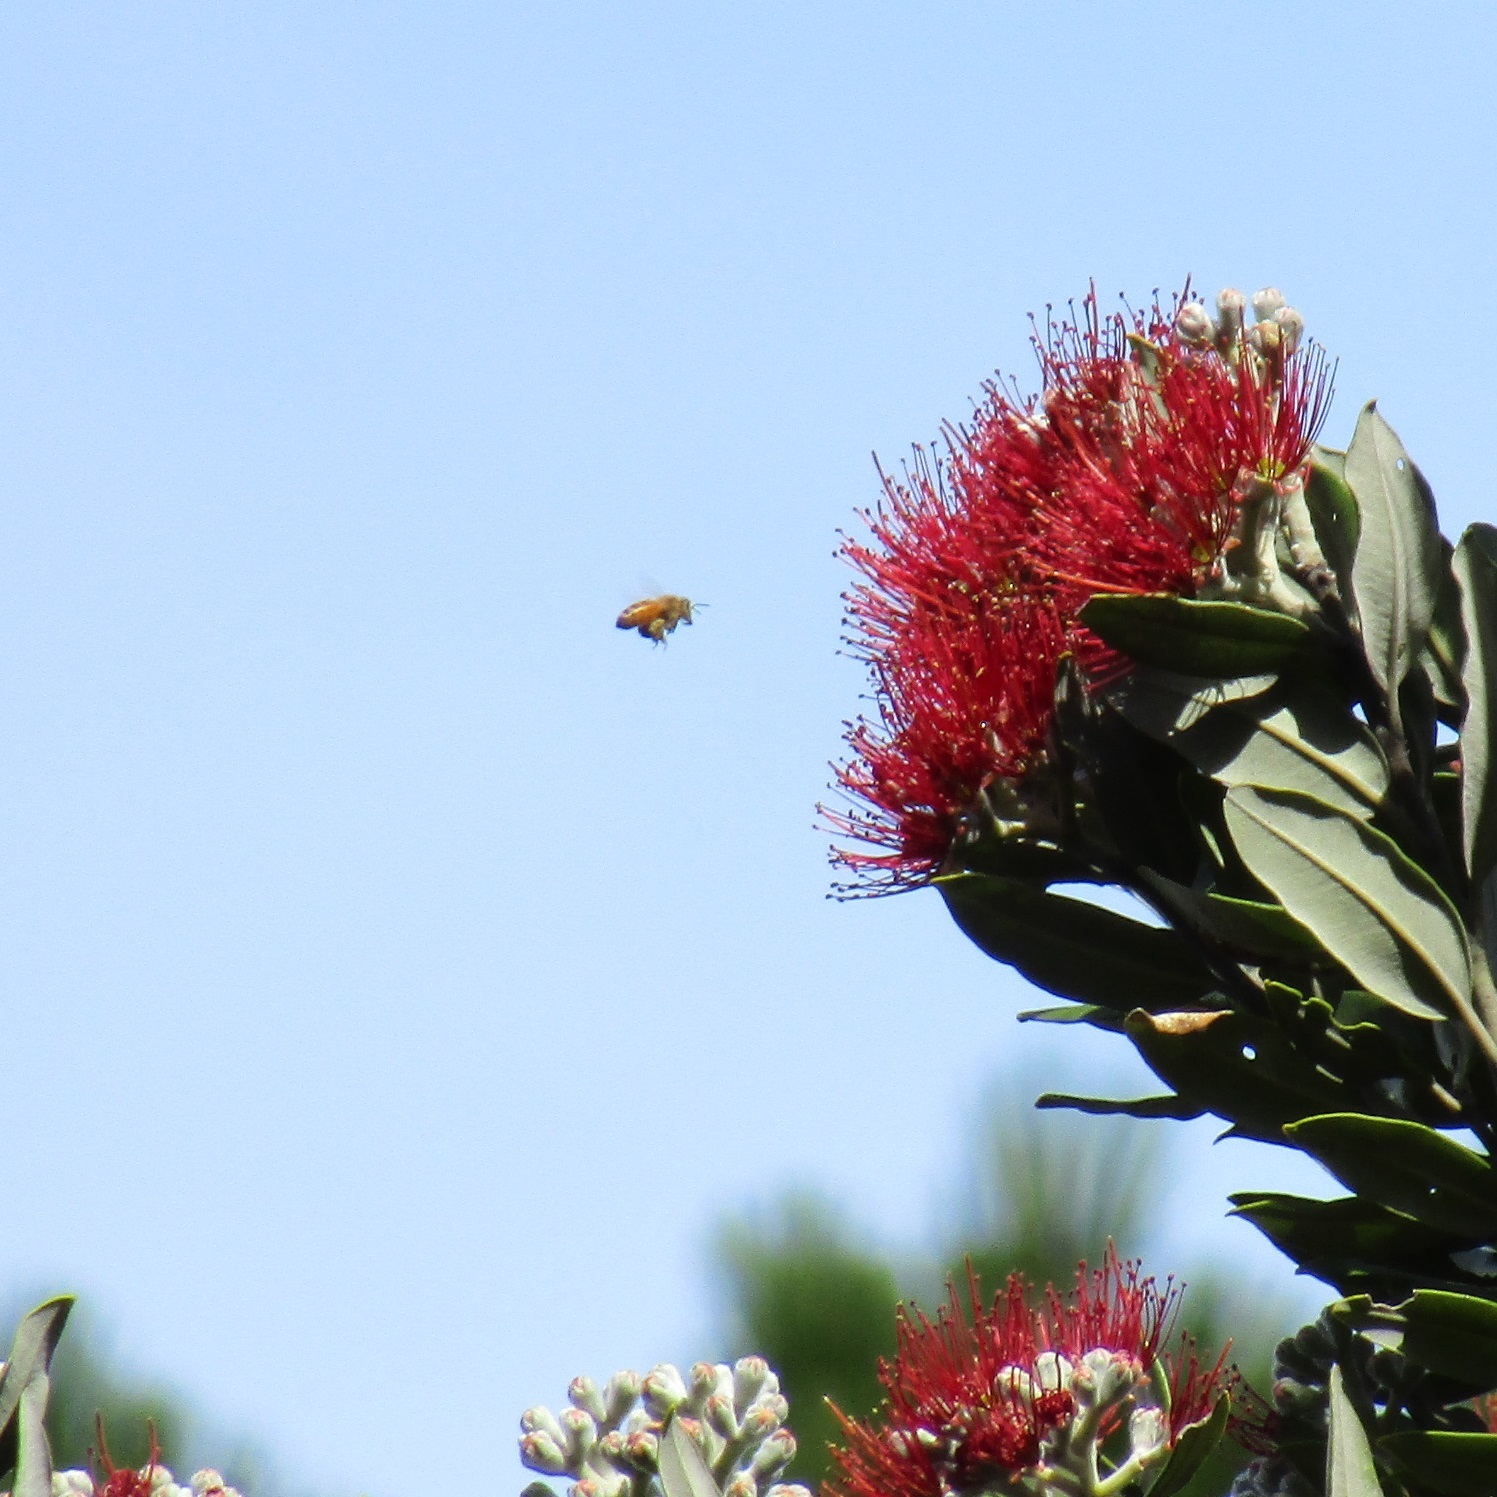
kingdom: Animalia
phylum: Arthropoda
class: Insecta
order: Hymenoptera
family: Apidae
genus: Apis
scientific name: Apis mellifera
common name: Honey bee
